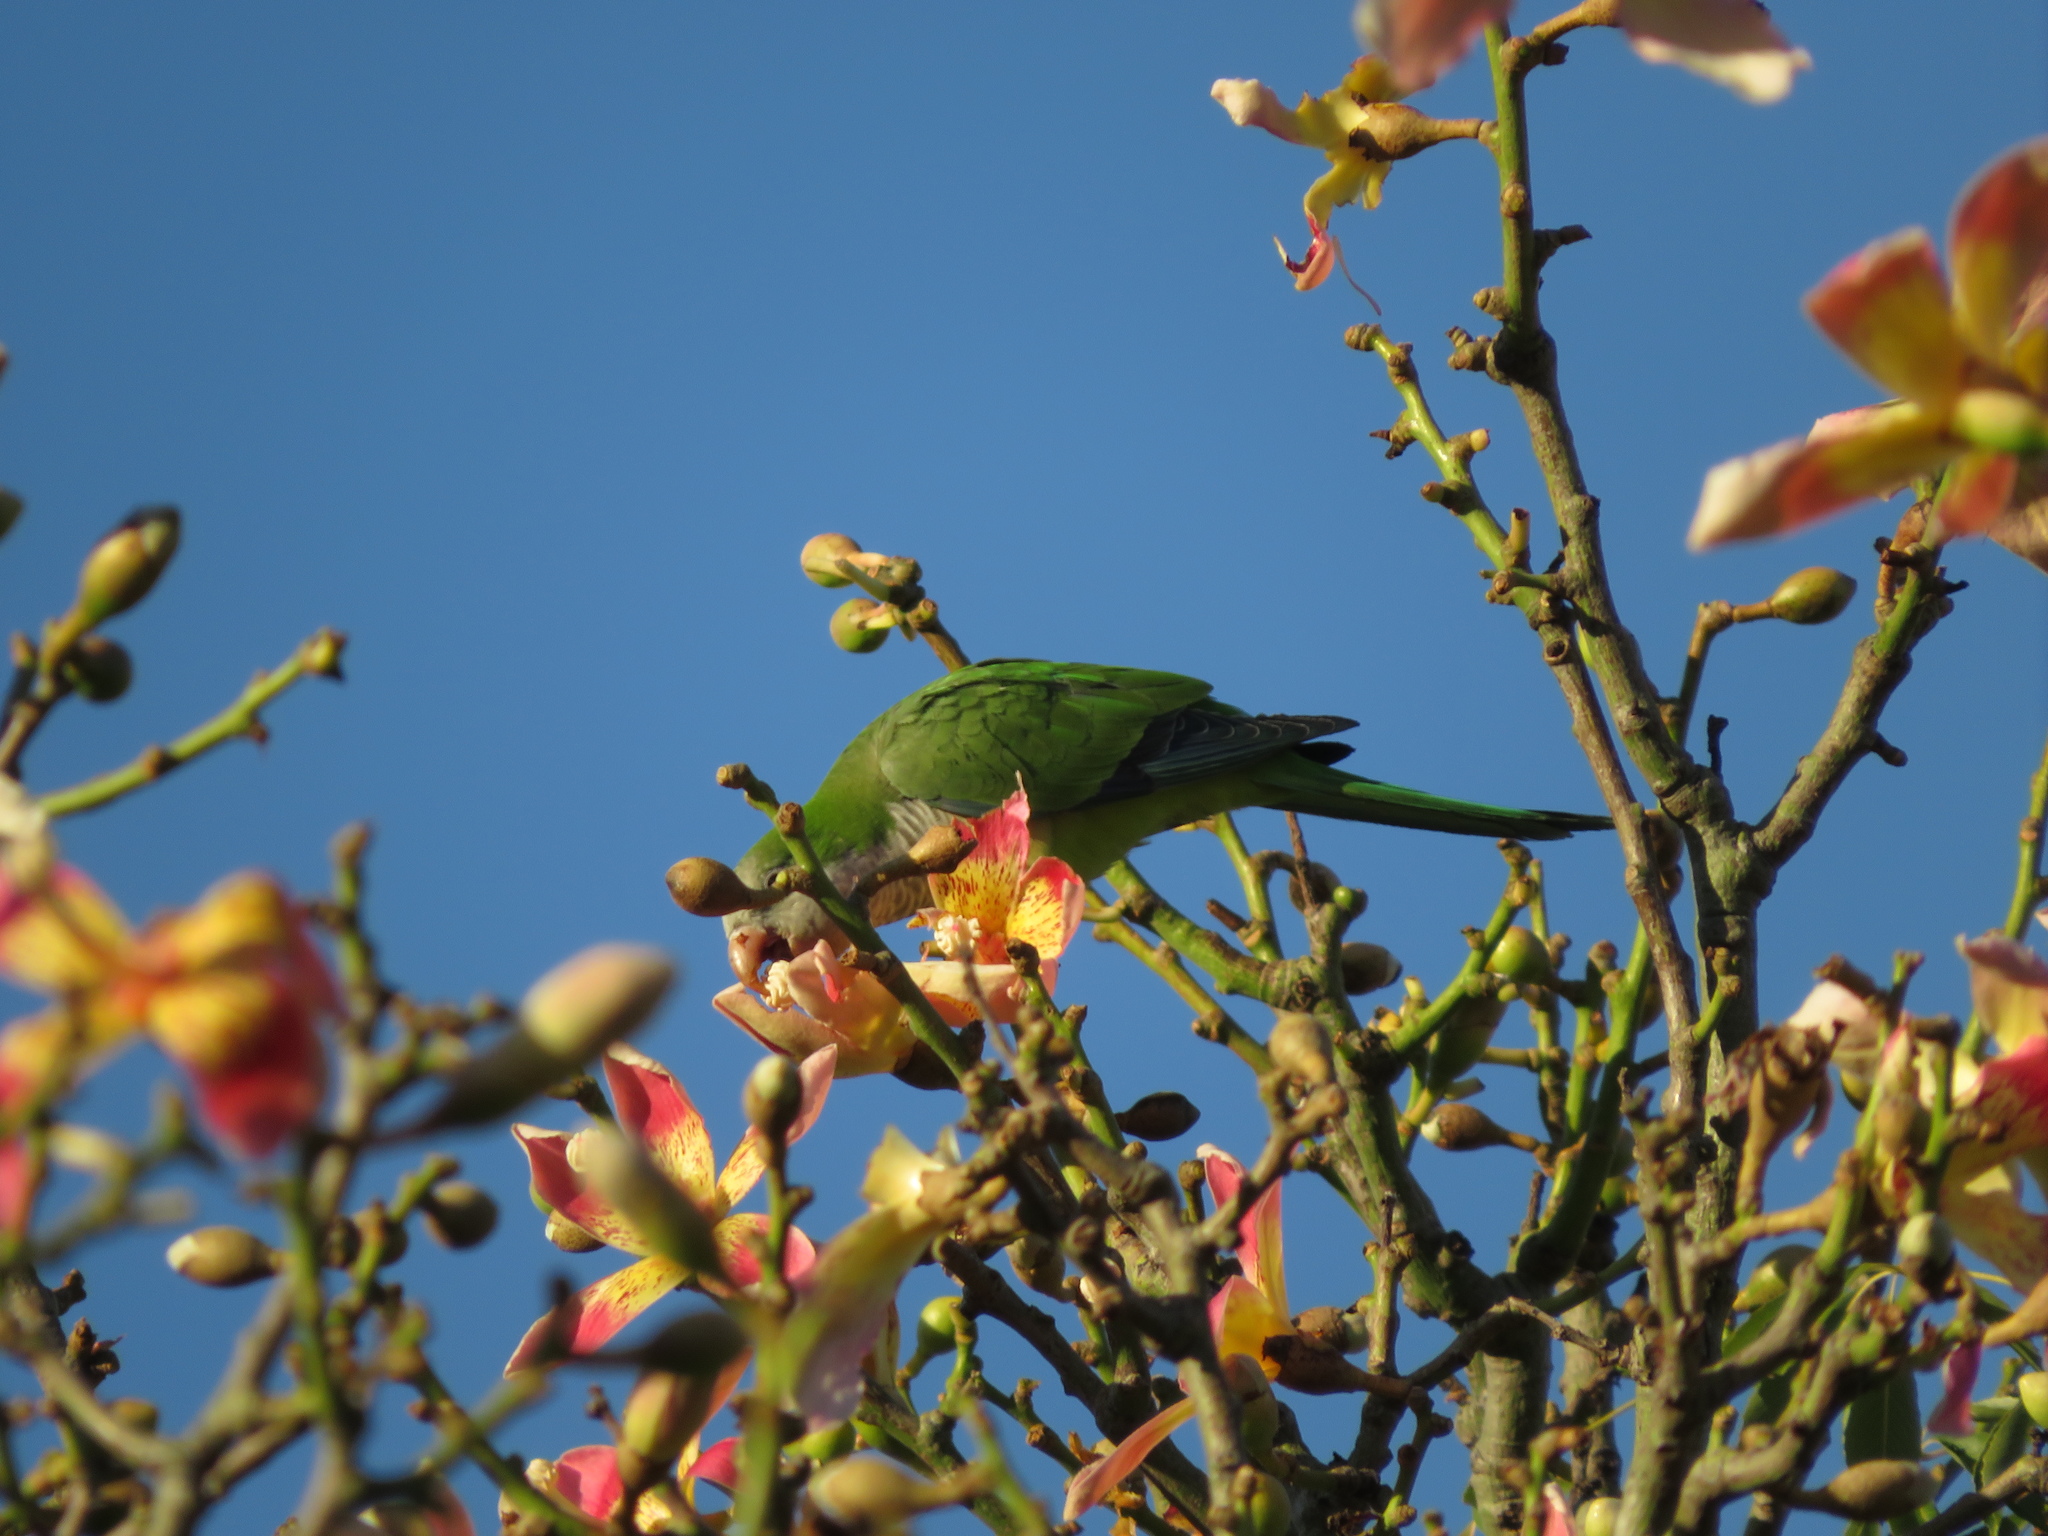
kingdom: Animalia
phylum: Chordata
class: Aves
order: Psittaciformes
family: Psittacidae
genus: Myiopsitta
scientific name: Myiopsitta monachus
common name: Monk parakeet
